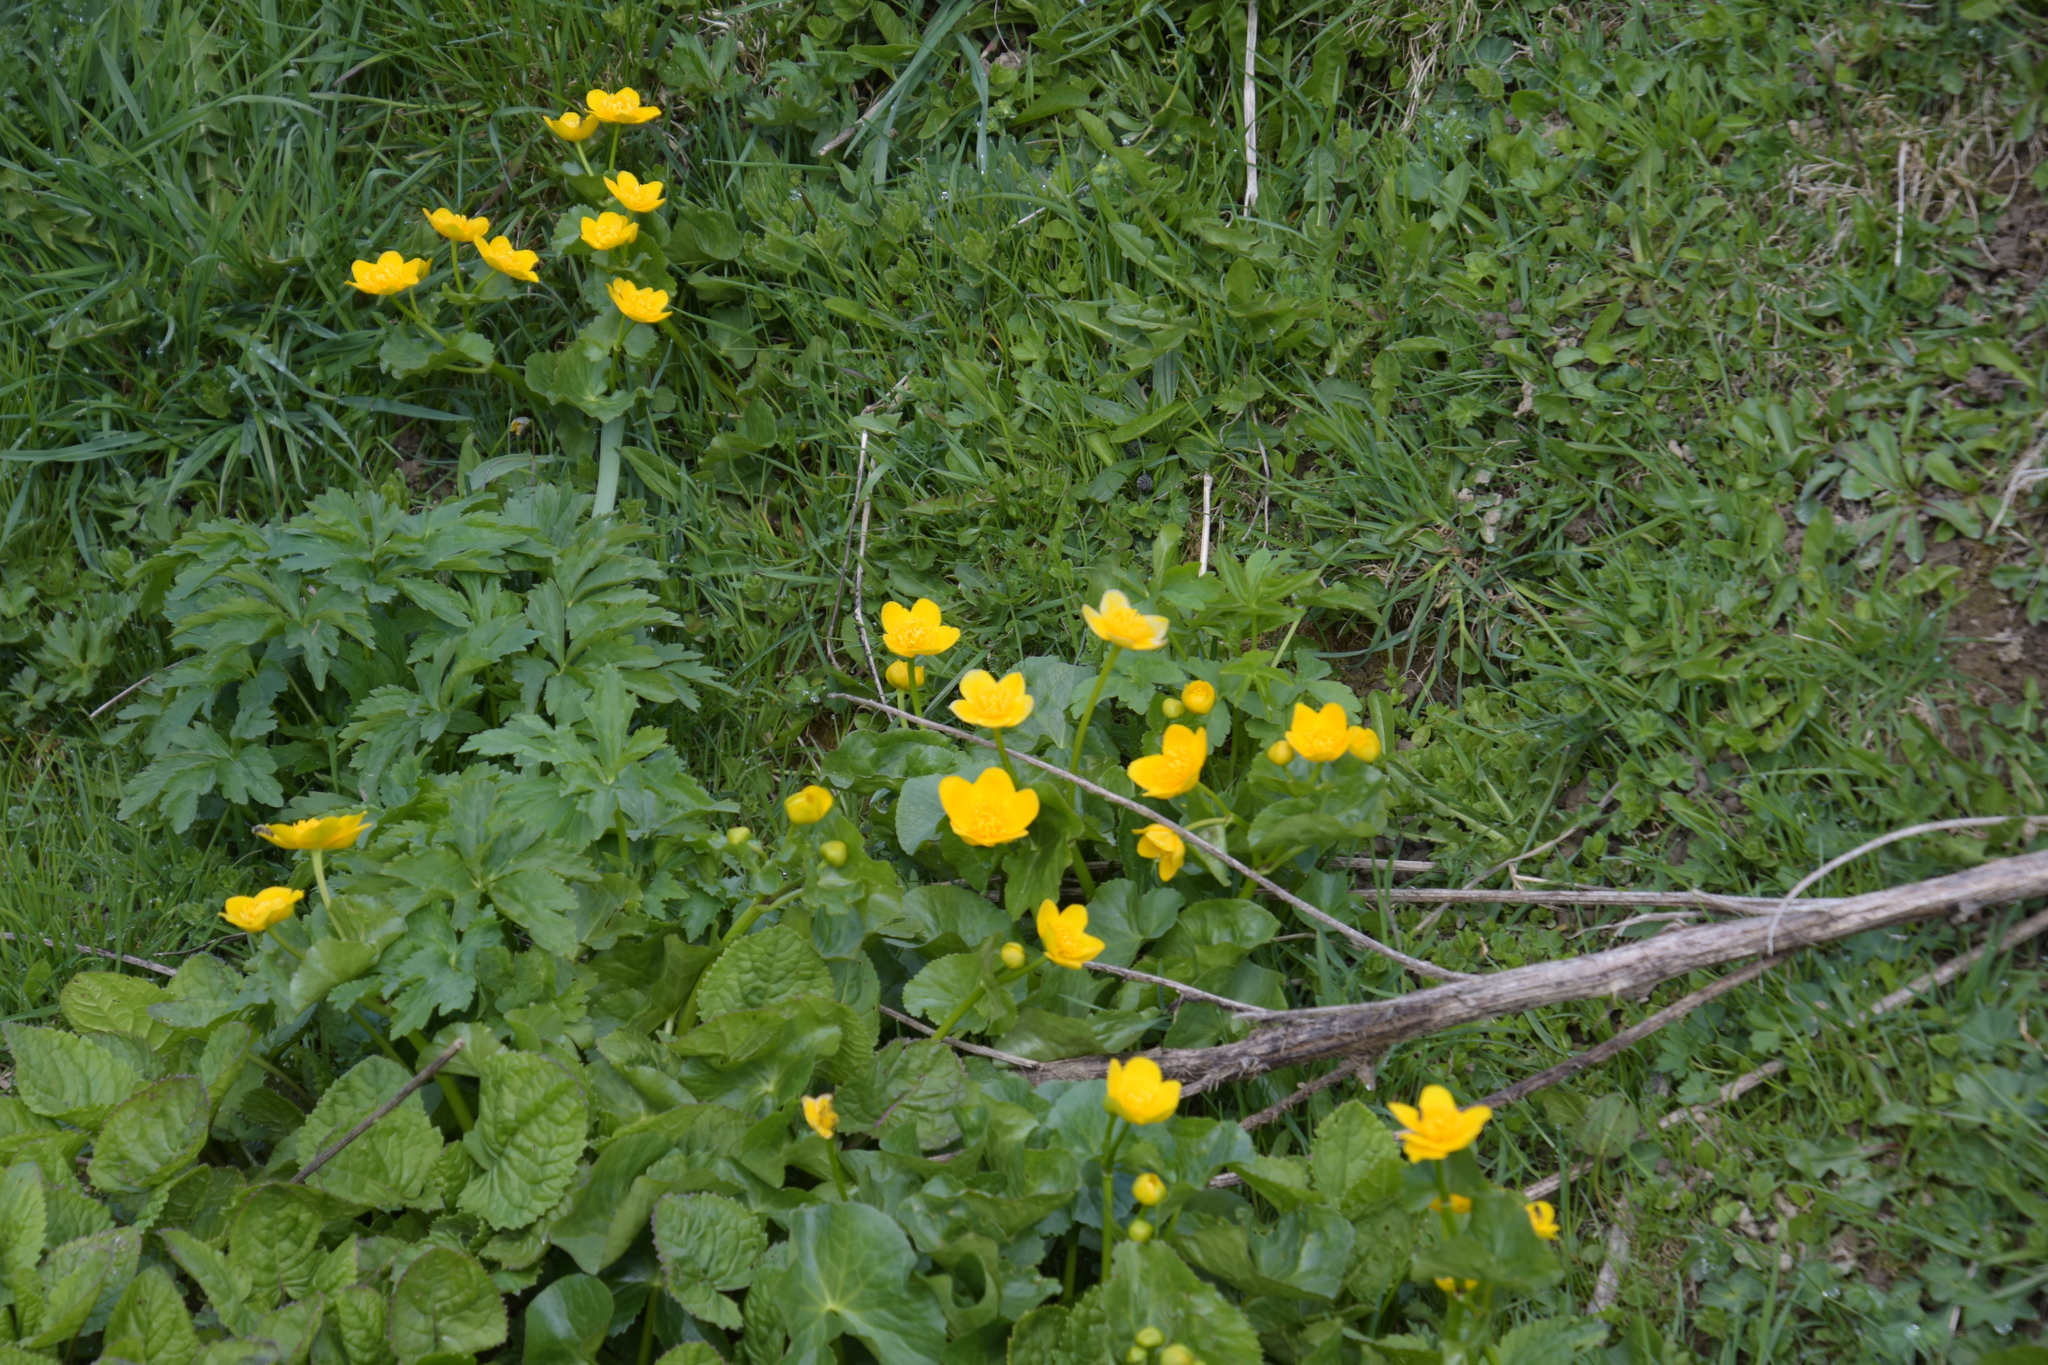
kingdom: Plantae
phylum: Tracheophyta
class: Magnoliopsida
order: Ranunculales
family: Ranunculaceae
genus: Caltha
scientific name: Caltha palustris
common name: Marsh marigold
